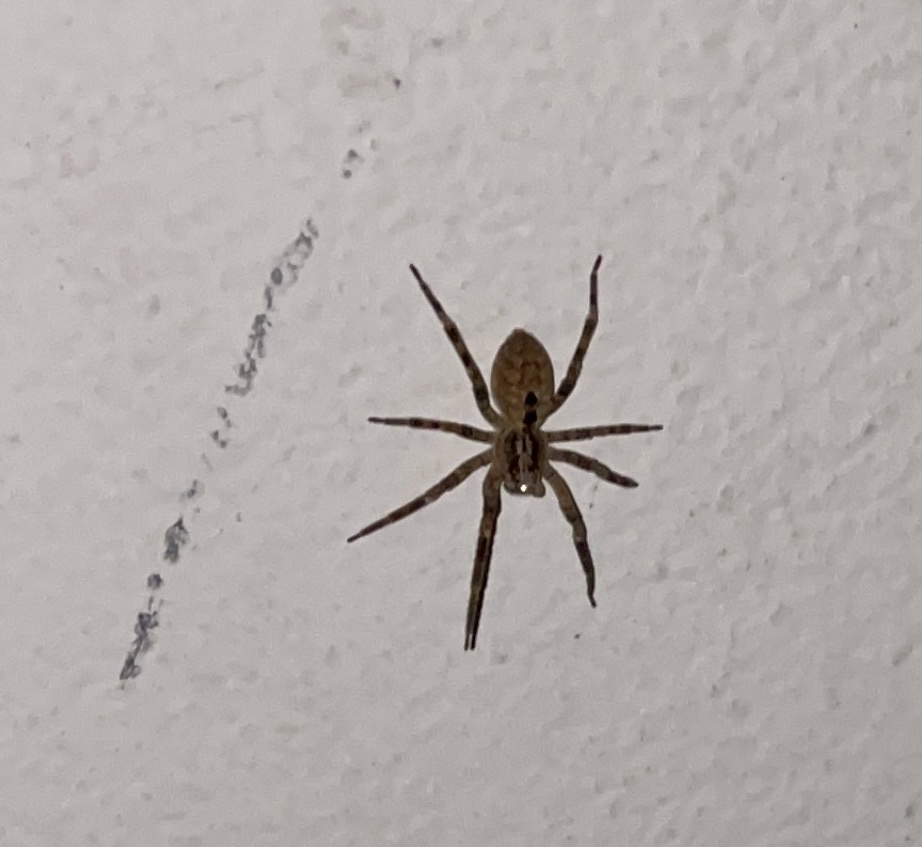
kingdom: Animalia
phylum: Arthropoda
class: Arachnida
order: Araneae
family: Zoropsidae
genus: Zoropsis
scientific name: Zoropsis spinimana
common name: Zoropsid spider
